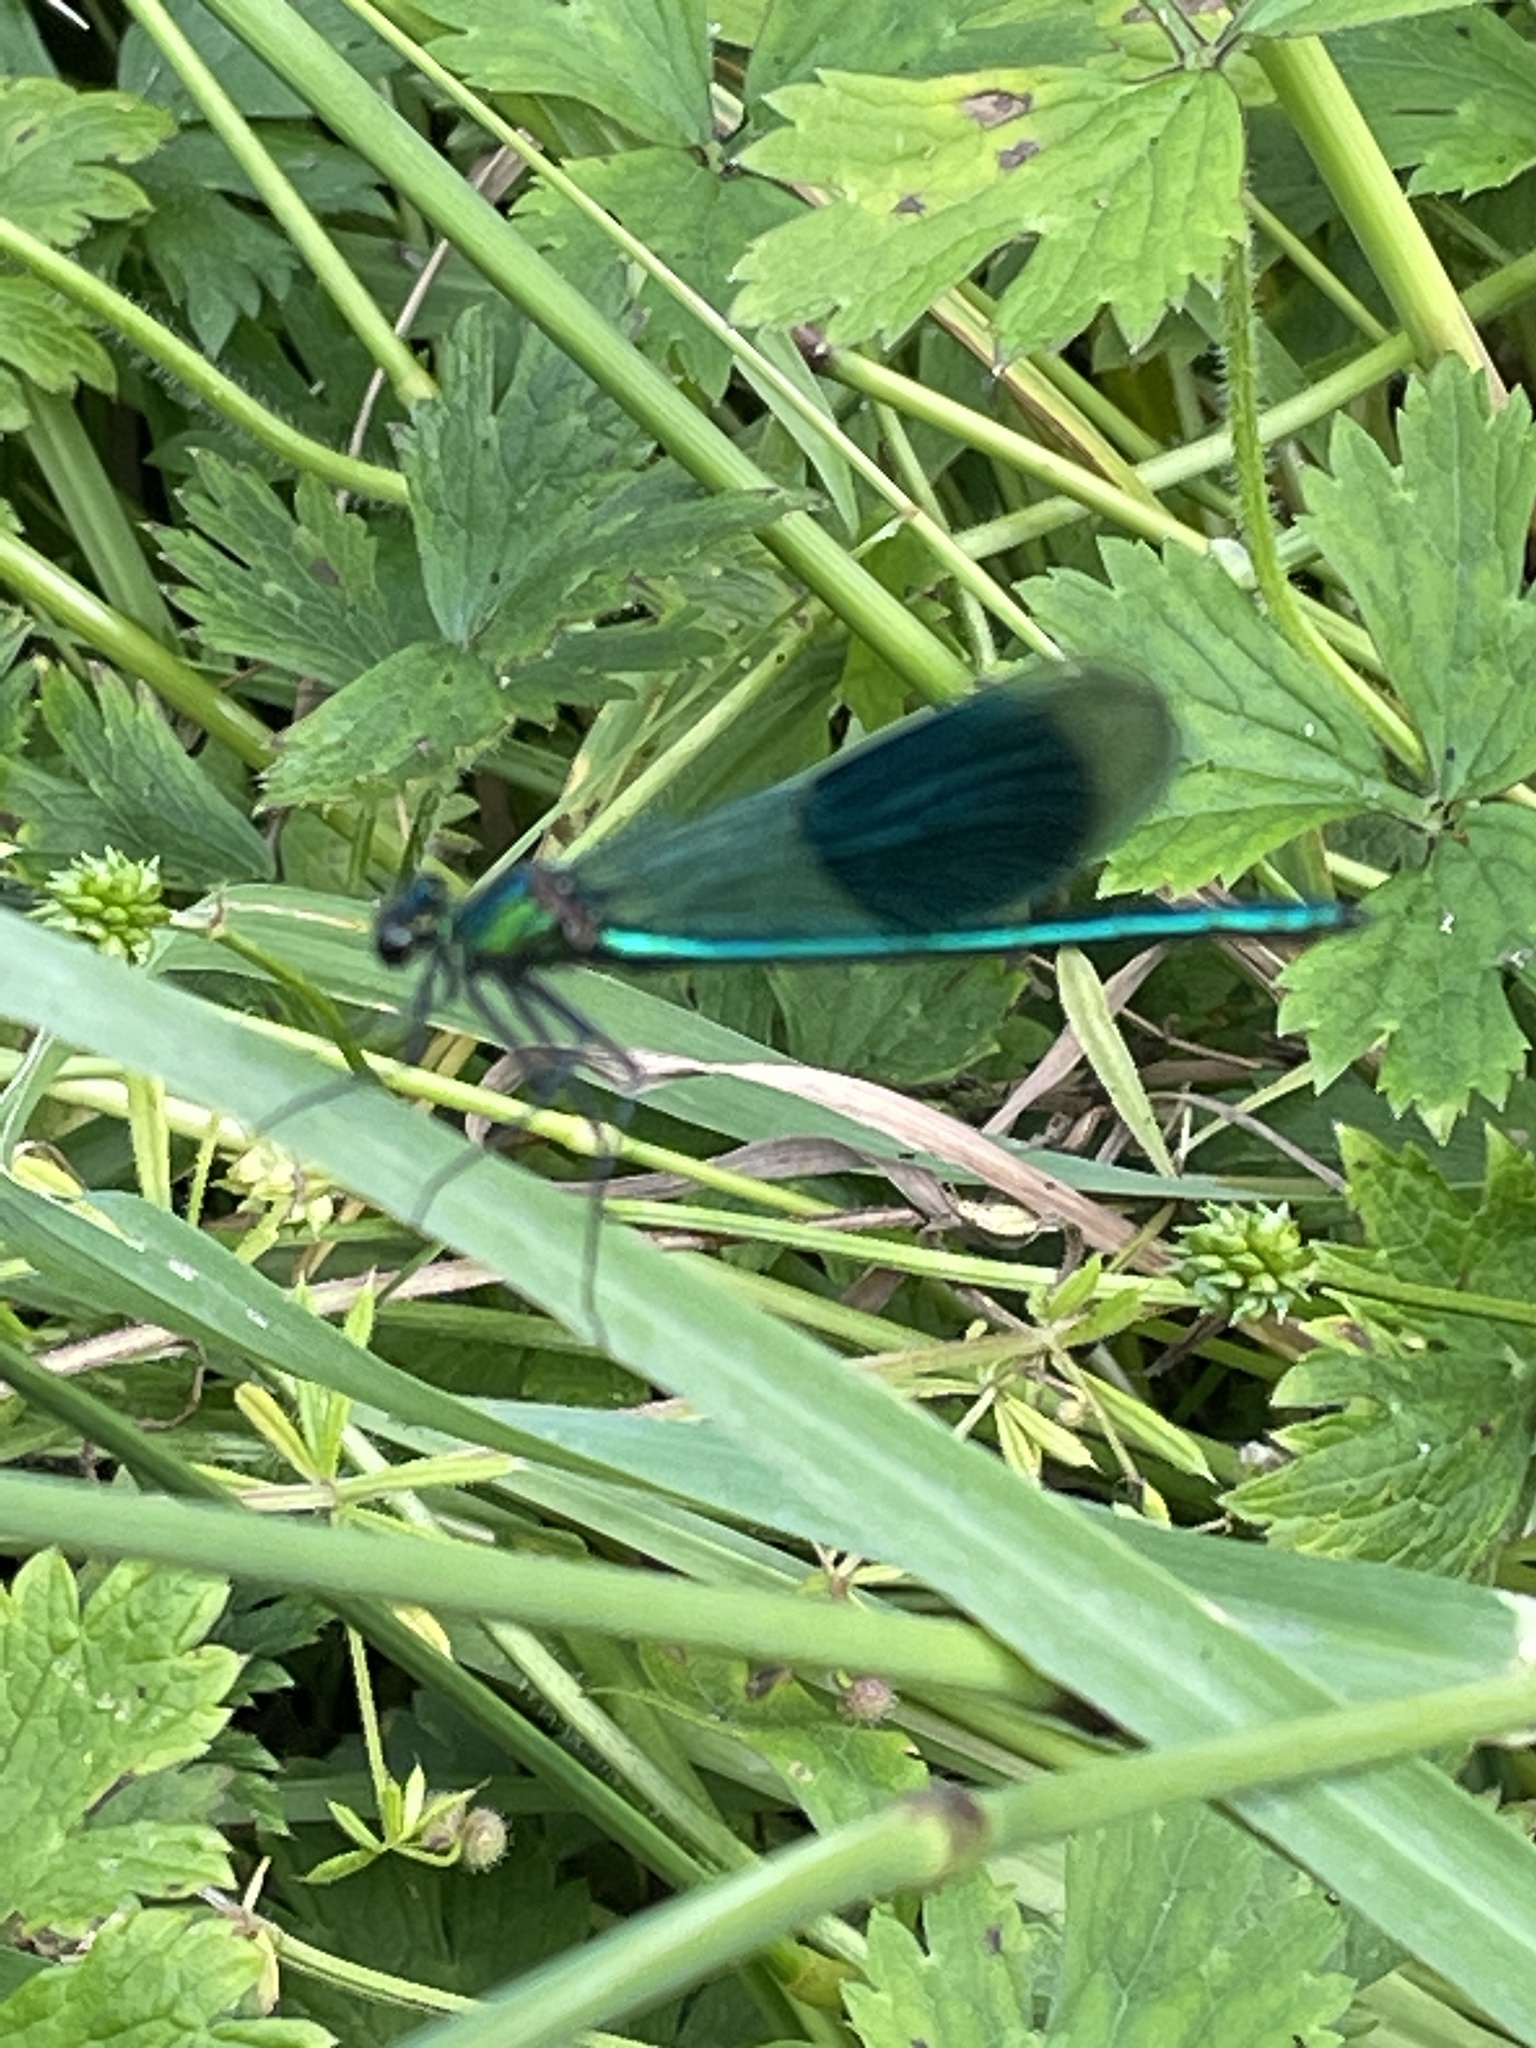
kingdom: Animalia
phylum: Arthropoda
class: Insecta
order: Odonata
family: Calopterygidae
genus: Calopteryx
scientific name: Calopteryx splendens
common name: Banded demoiselle
